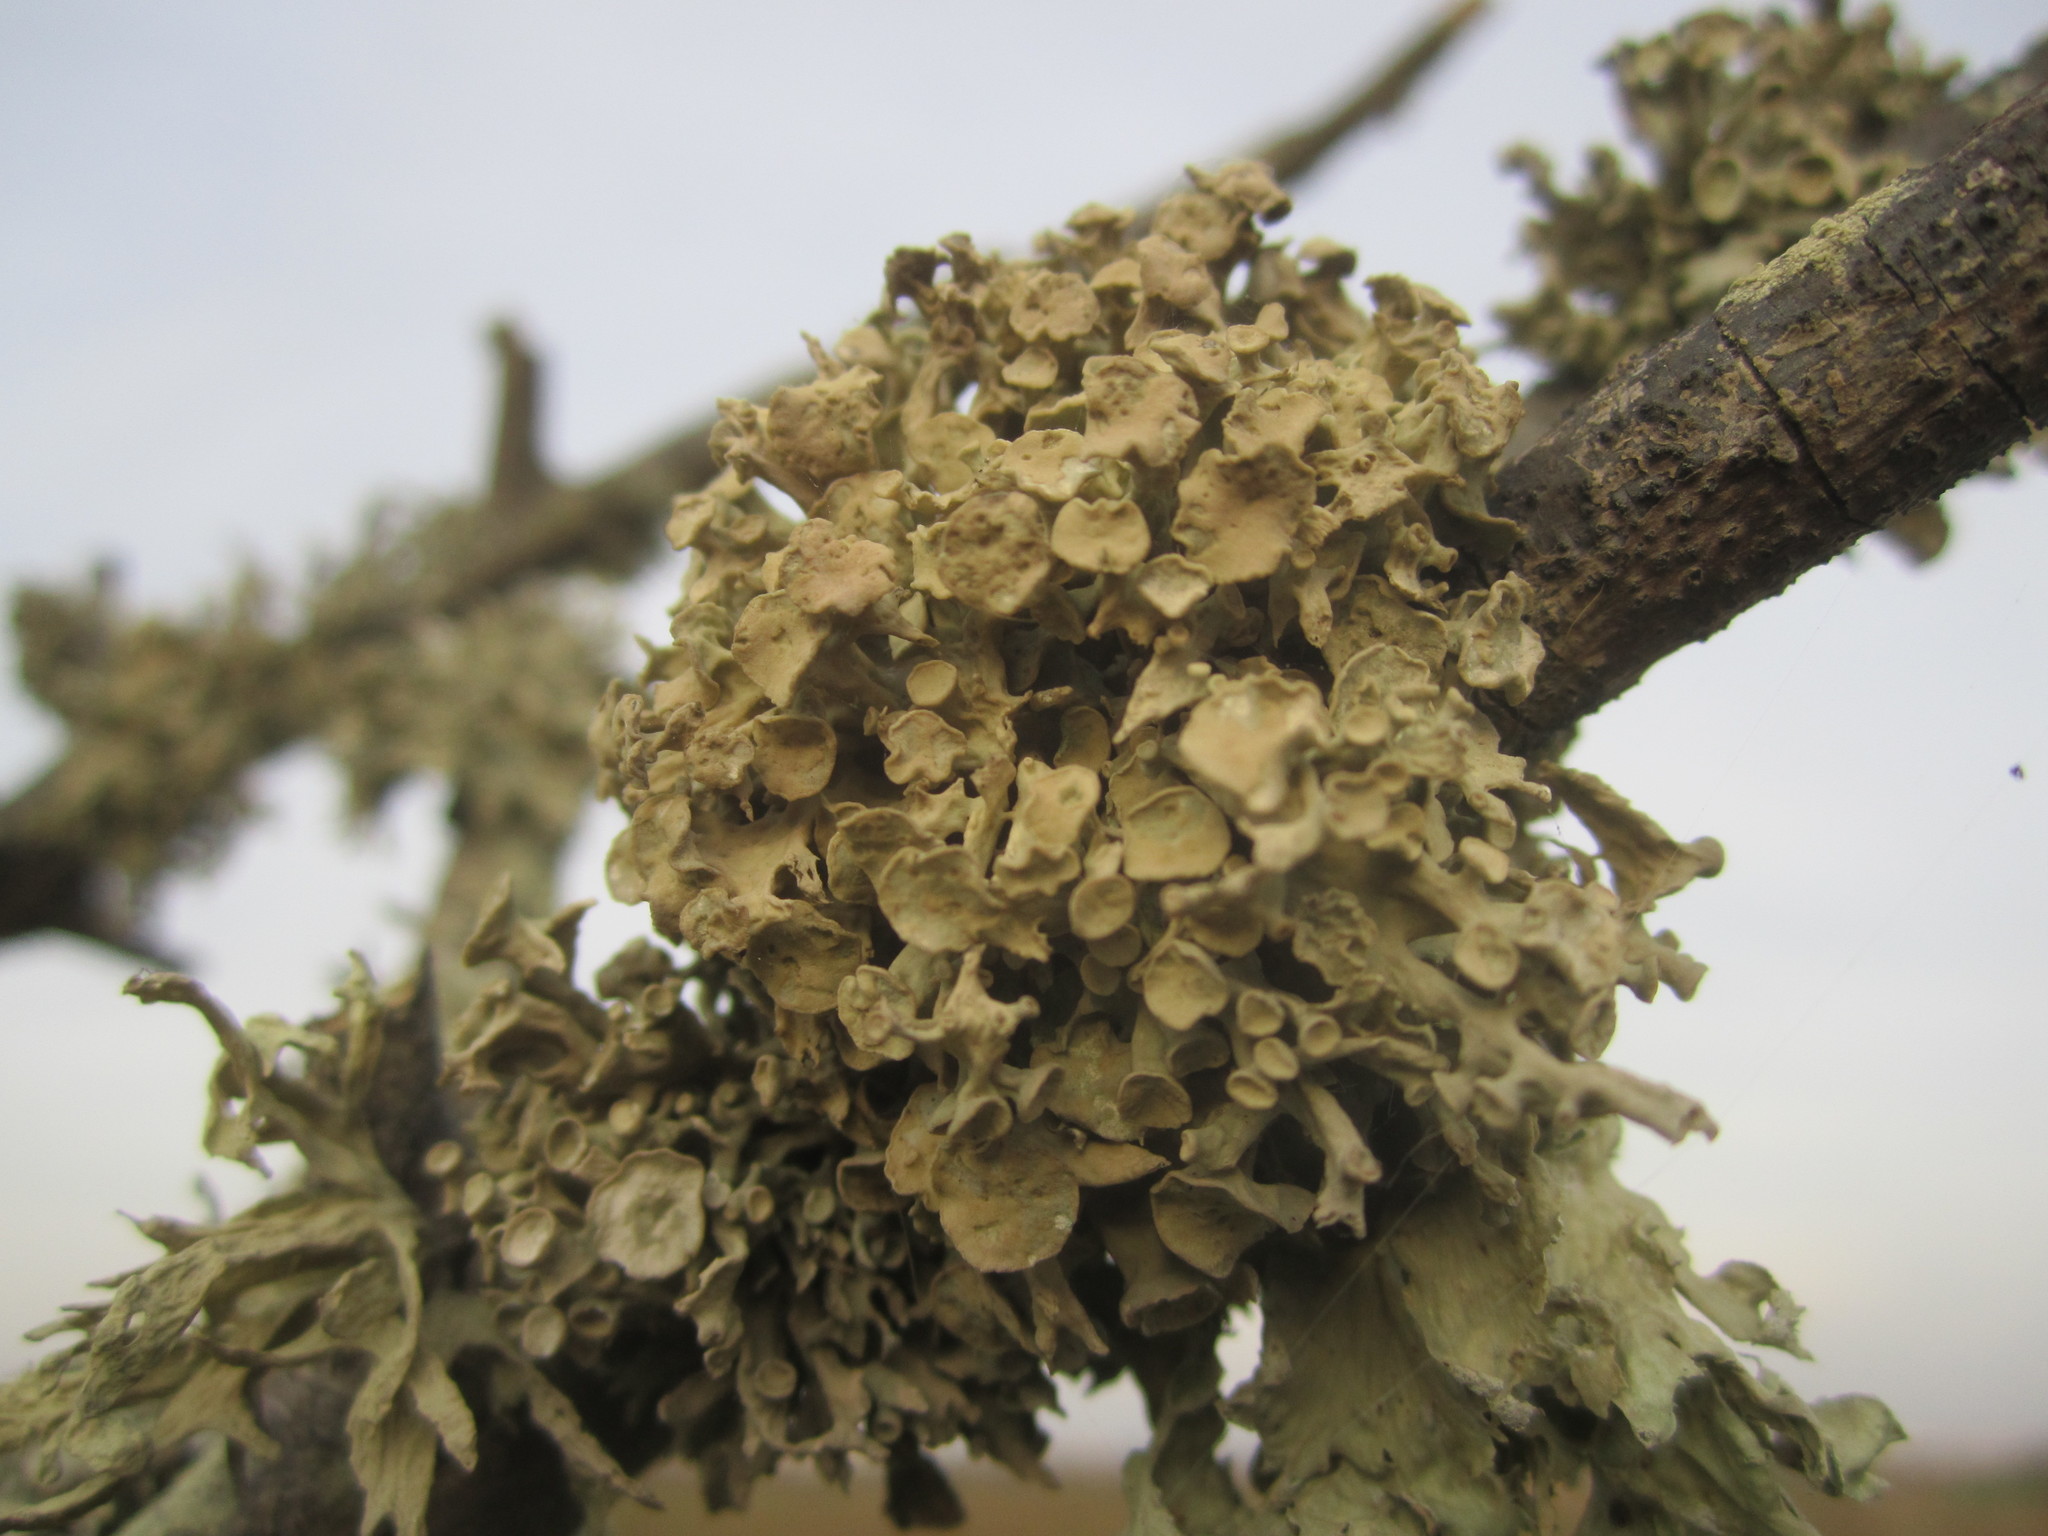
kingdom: Fungi
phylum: Ascomycota
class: Lecanoromycetes
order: Lecanorales
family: Ramalinaceae
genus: Ramalina
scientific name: Ramalina fastigiata
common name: Dotted ribbon lichen
